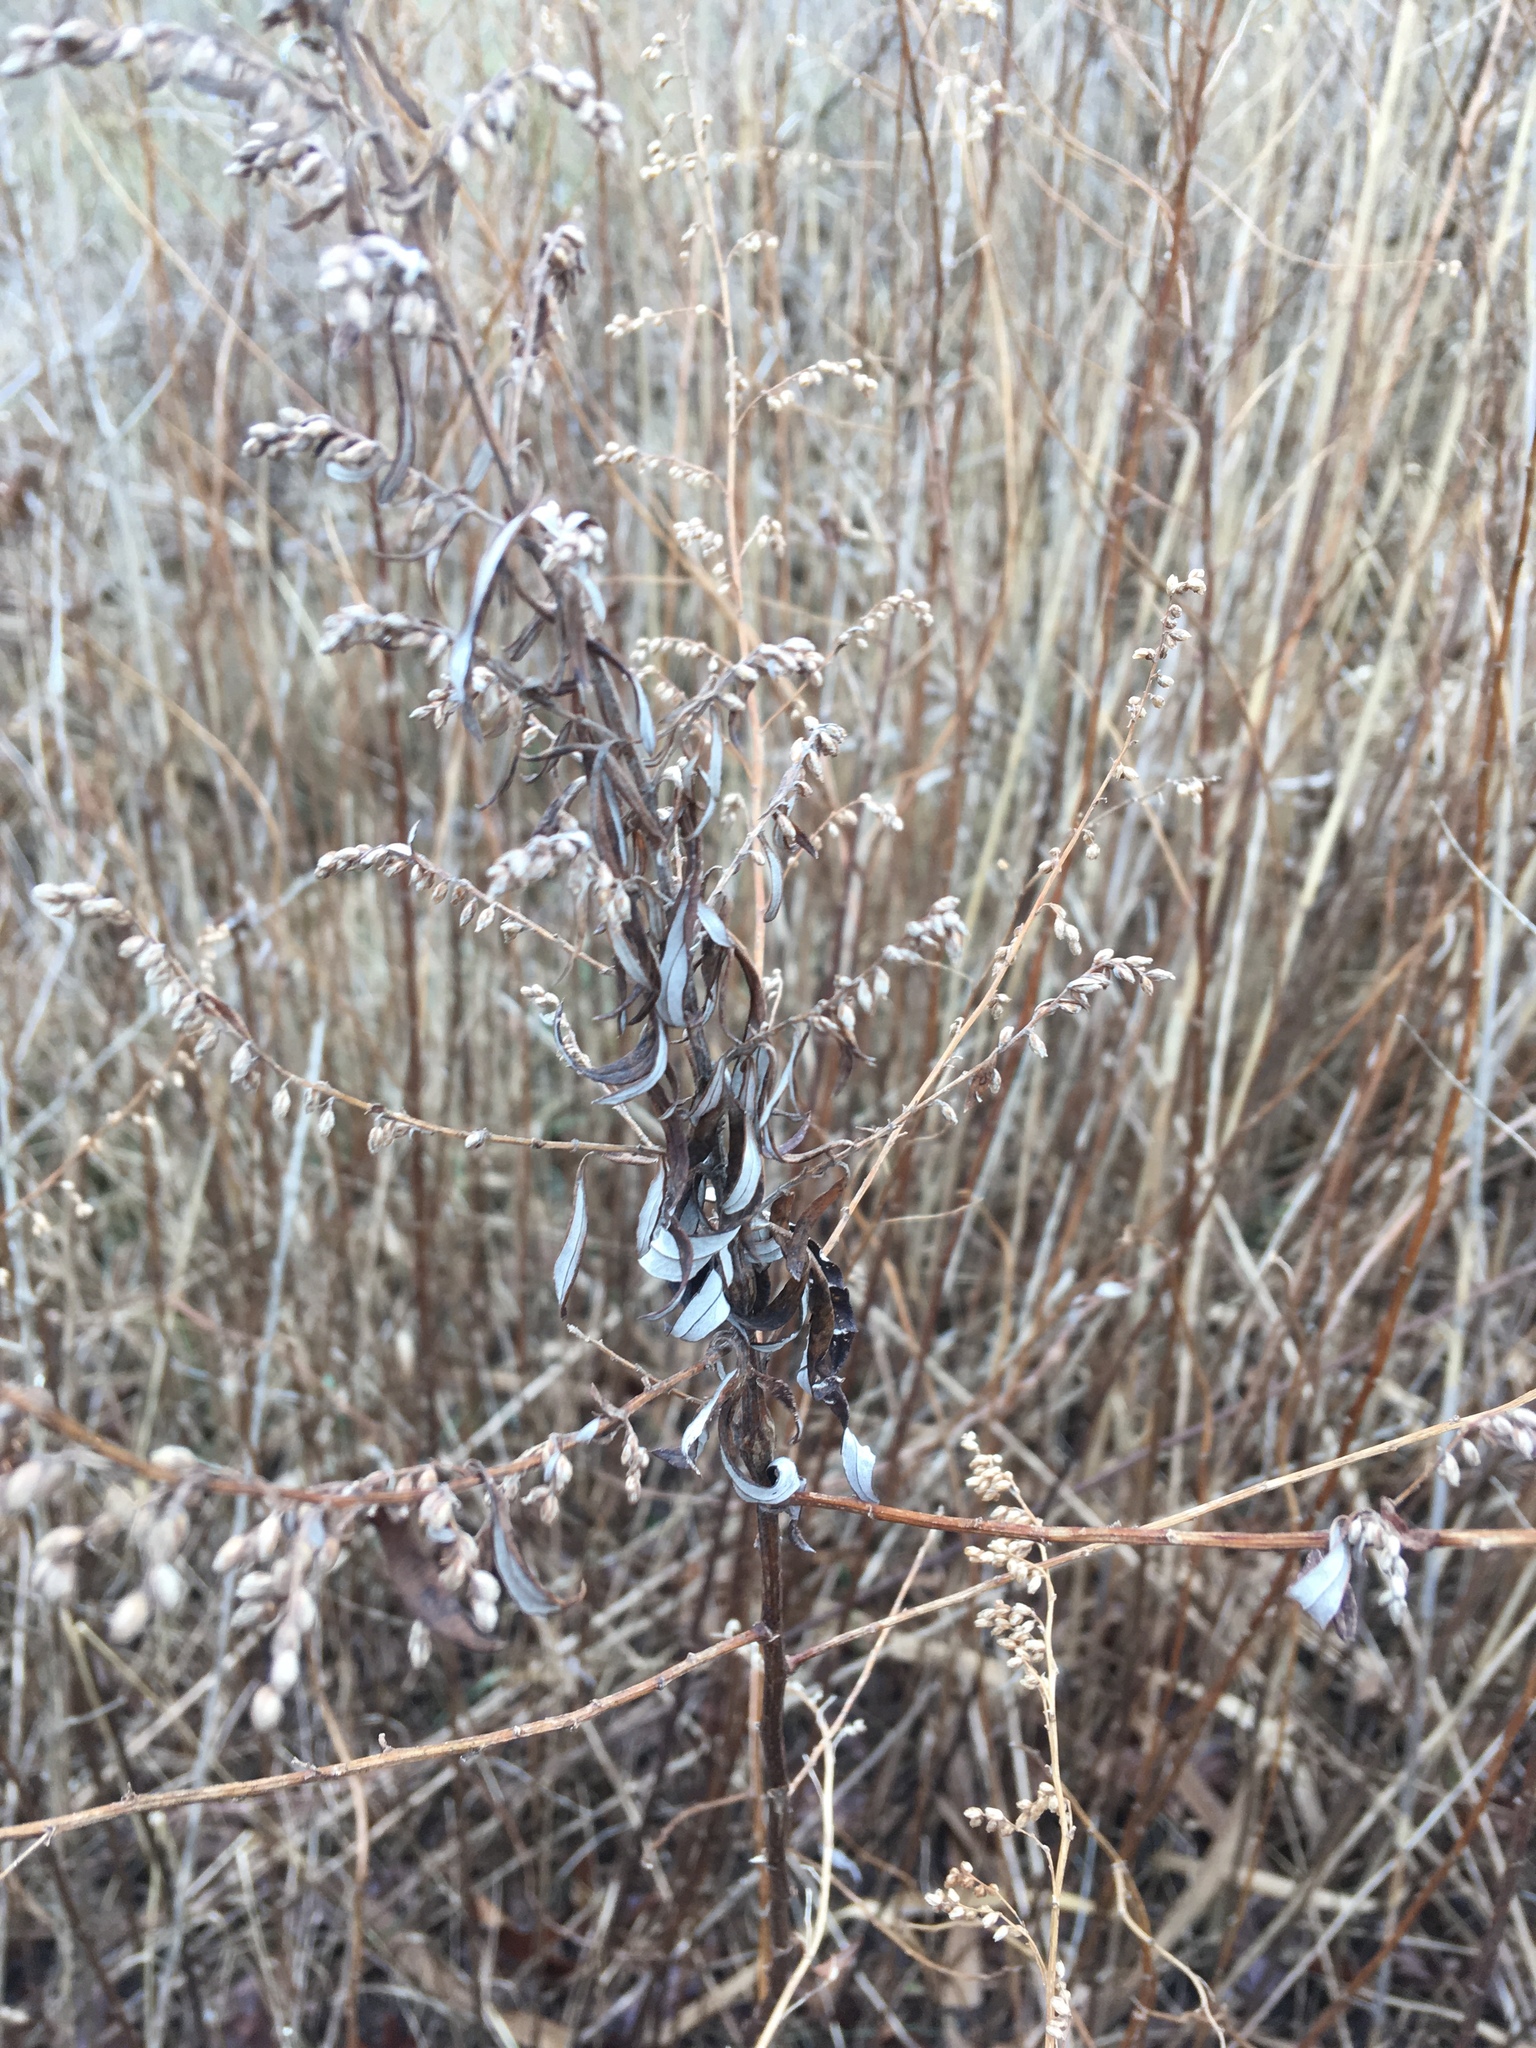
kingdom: Plantae
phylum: Tracheophyta
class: Magnoliopsida
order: Asterales
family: Asteraceae
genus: Artemisia
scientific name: Artemisia vulgaris
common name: Mugwort
